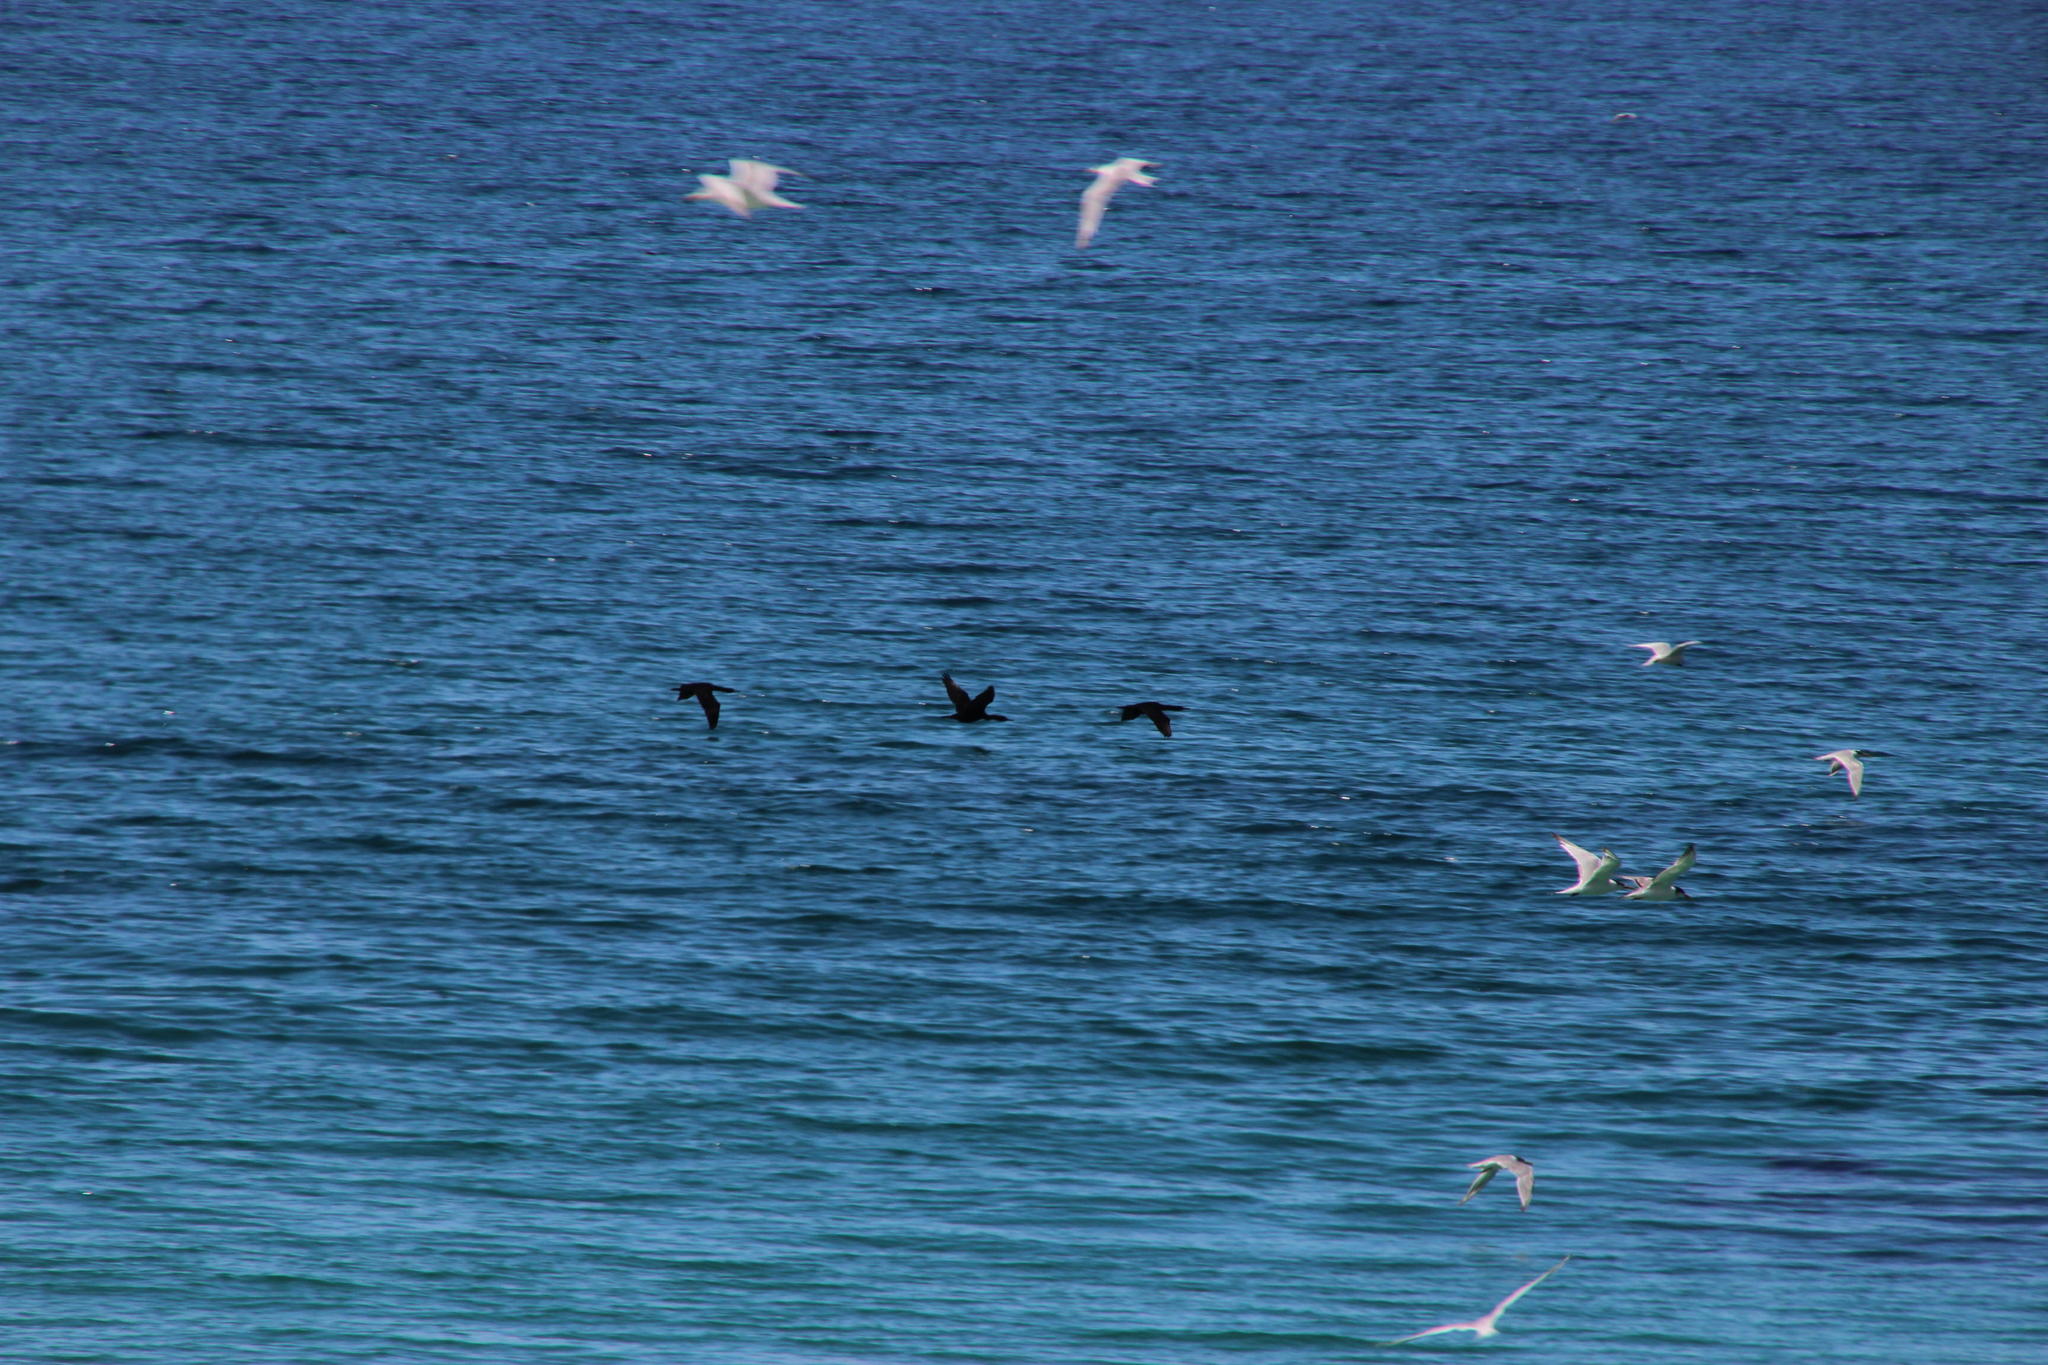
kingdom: Animalia
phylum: Chordata
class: Aves
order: Suliformes
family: Phalacrocoracidae
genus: Phalacrocorax
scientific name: Phalacrocorax capensis
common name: Cape cormorant
